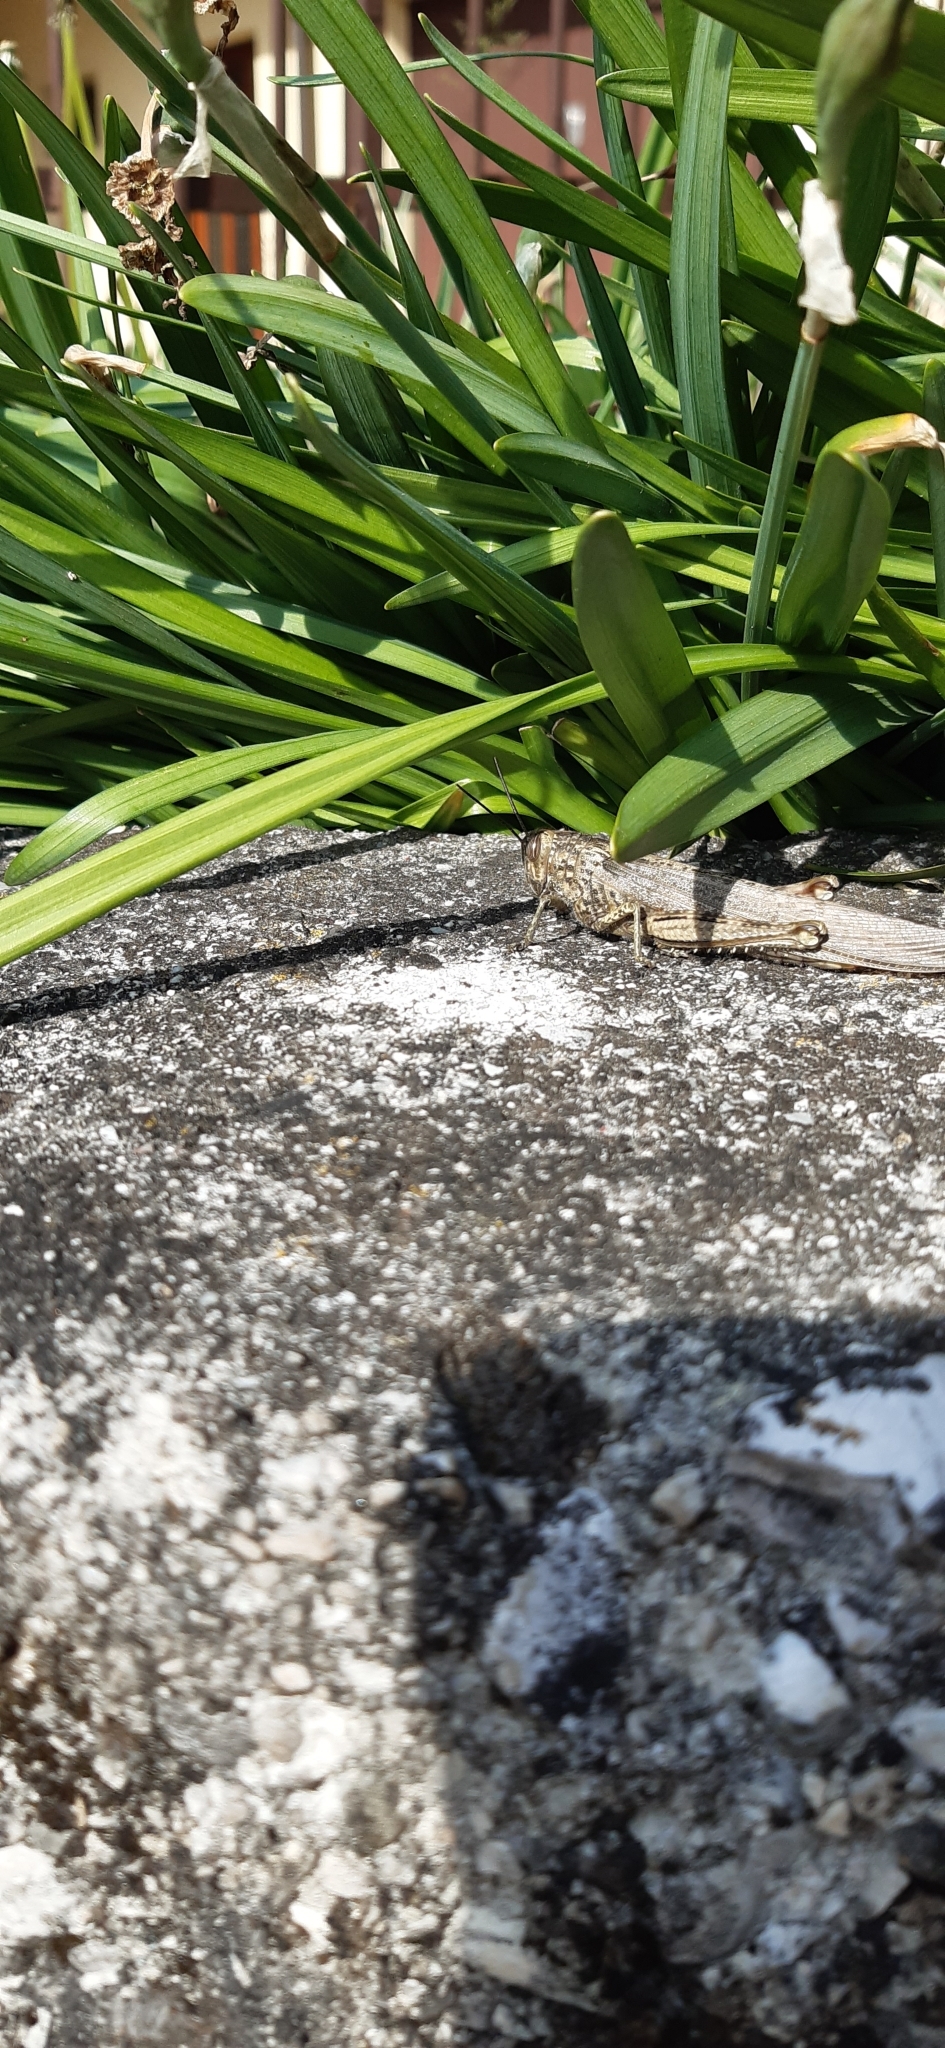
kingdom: Animalia
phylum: Arthropoda
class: Insecta
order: Orthoptera
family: Acrididae
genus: Anacridium
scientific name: Anacridium aegyptium
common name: Egyptian grasshopper
